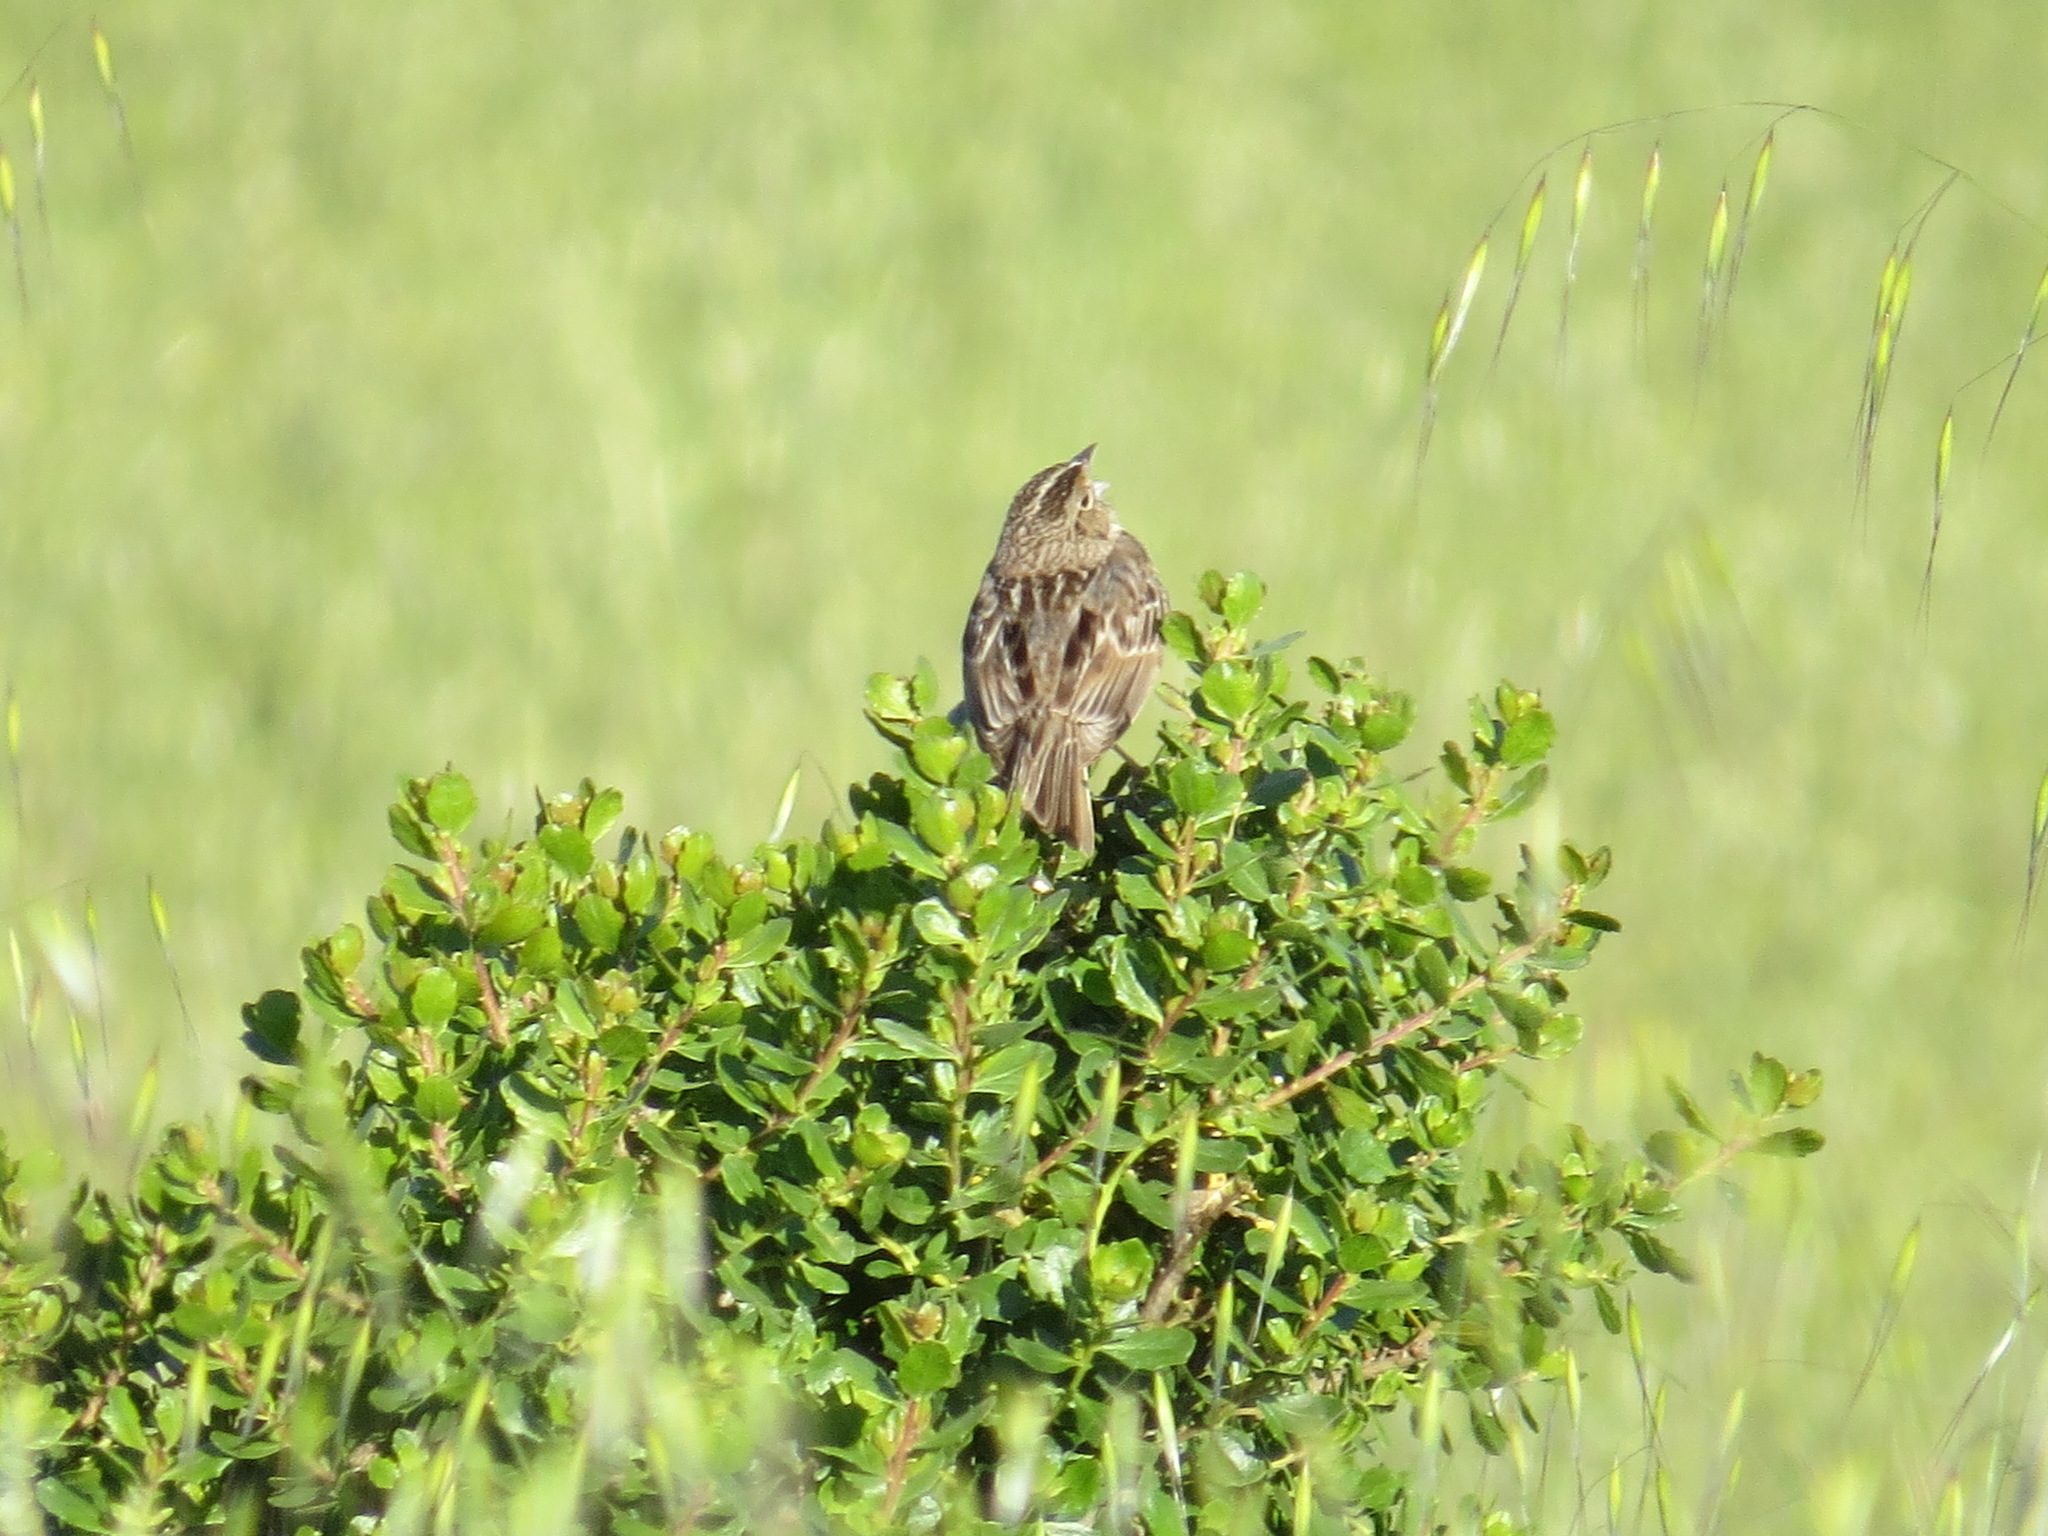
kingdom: Animalia
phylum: Chordata
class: Aves
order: Passeriformes
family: Passerellidae
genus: Ammodramus
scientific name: Ammodramus savannarum
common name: Grasshopper sparrow
